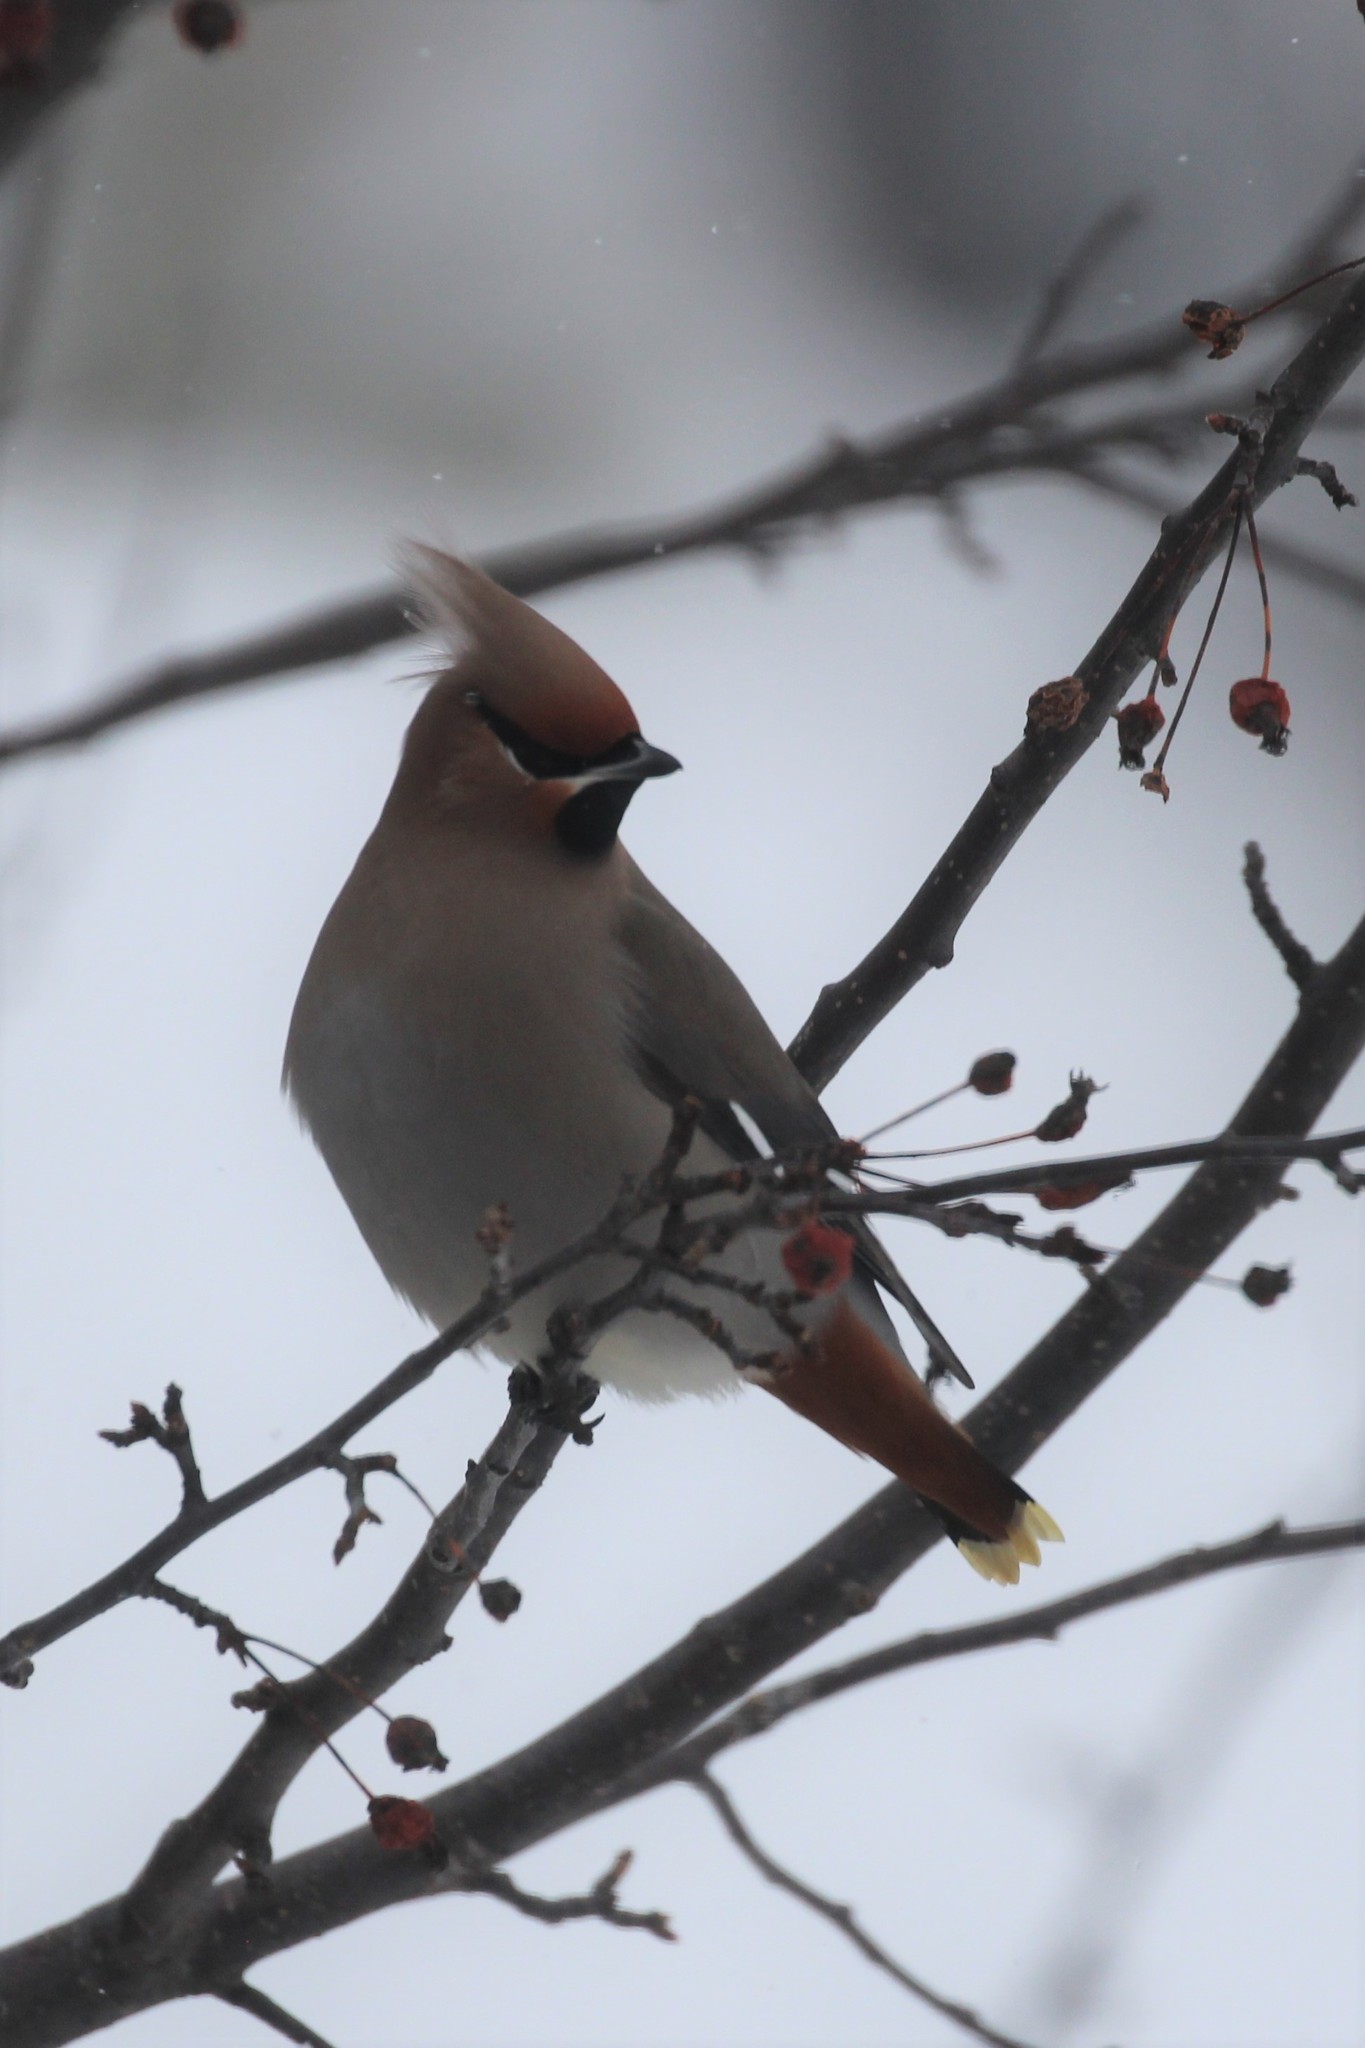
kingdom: Animalia
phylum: Chordata
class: Aves
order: Passeriformes
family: Bombycillidae
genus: Bombycilla
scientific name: Bombycilla garrulus
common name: Bohemian waxwing
